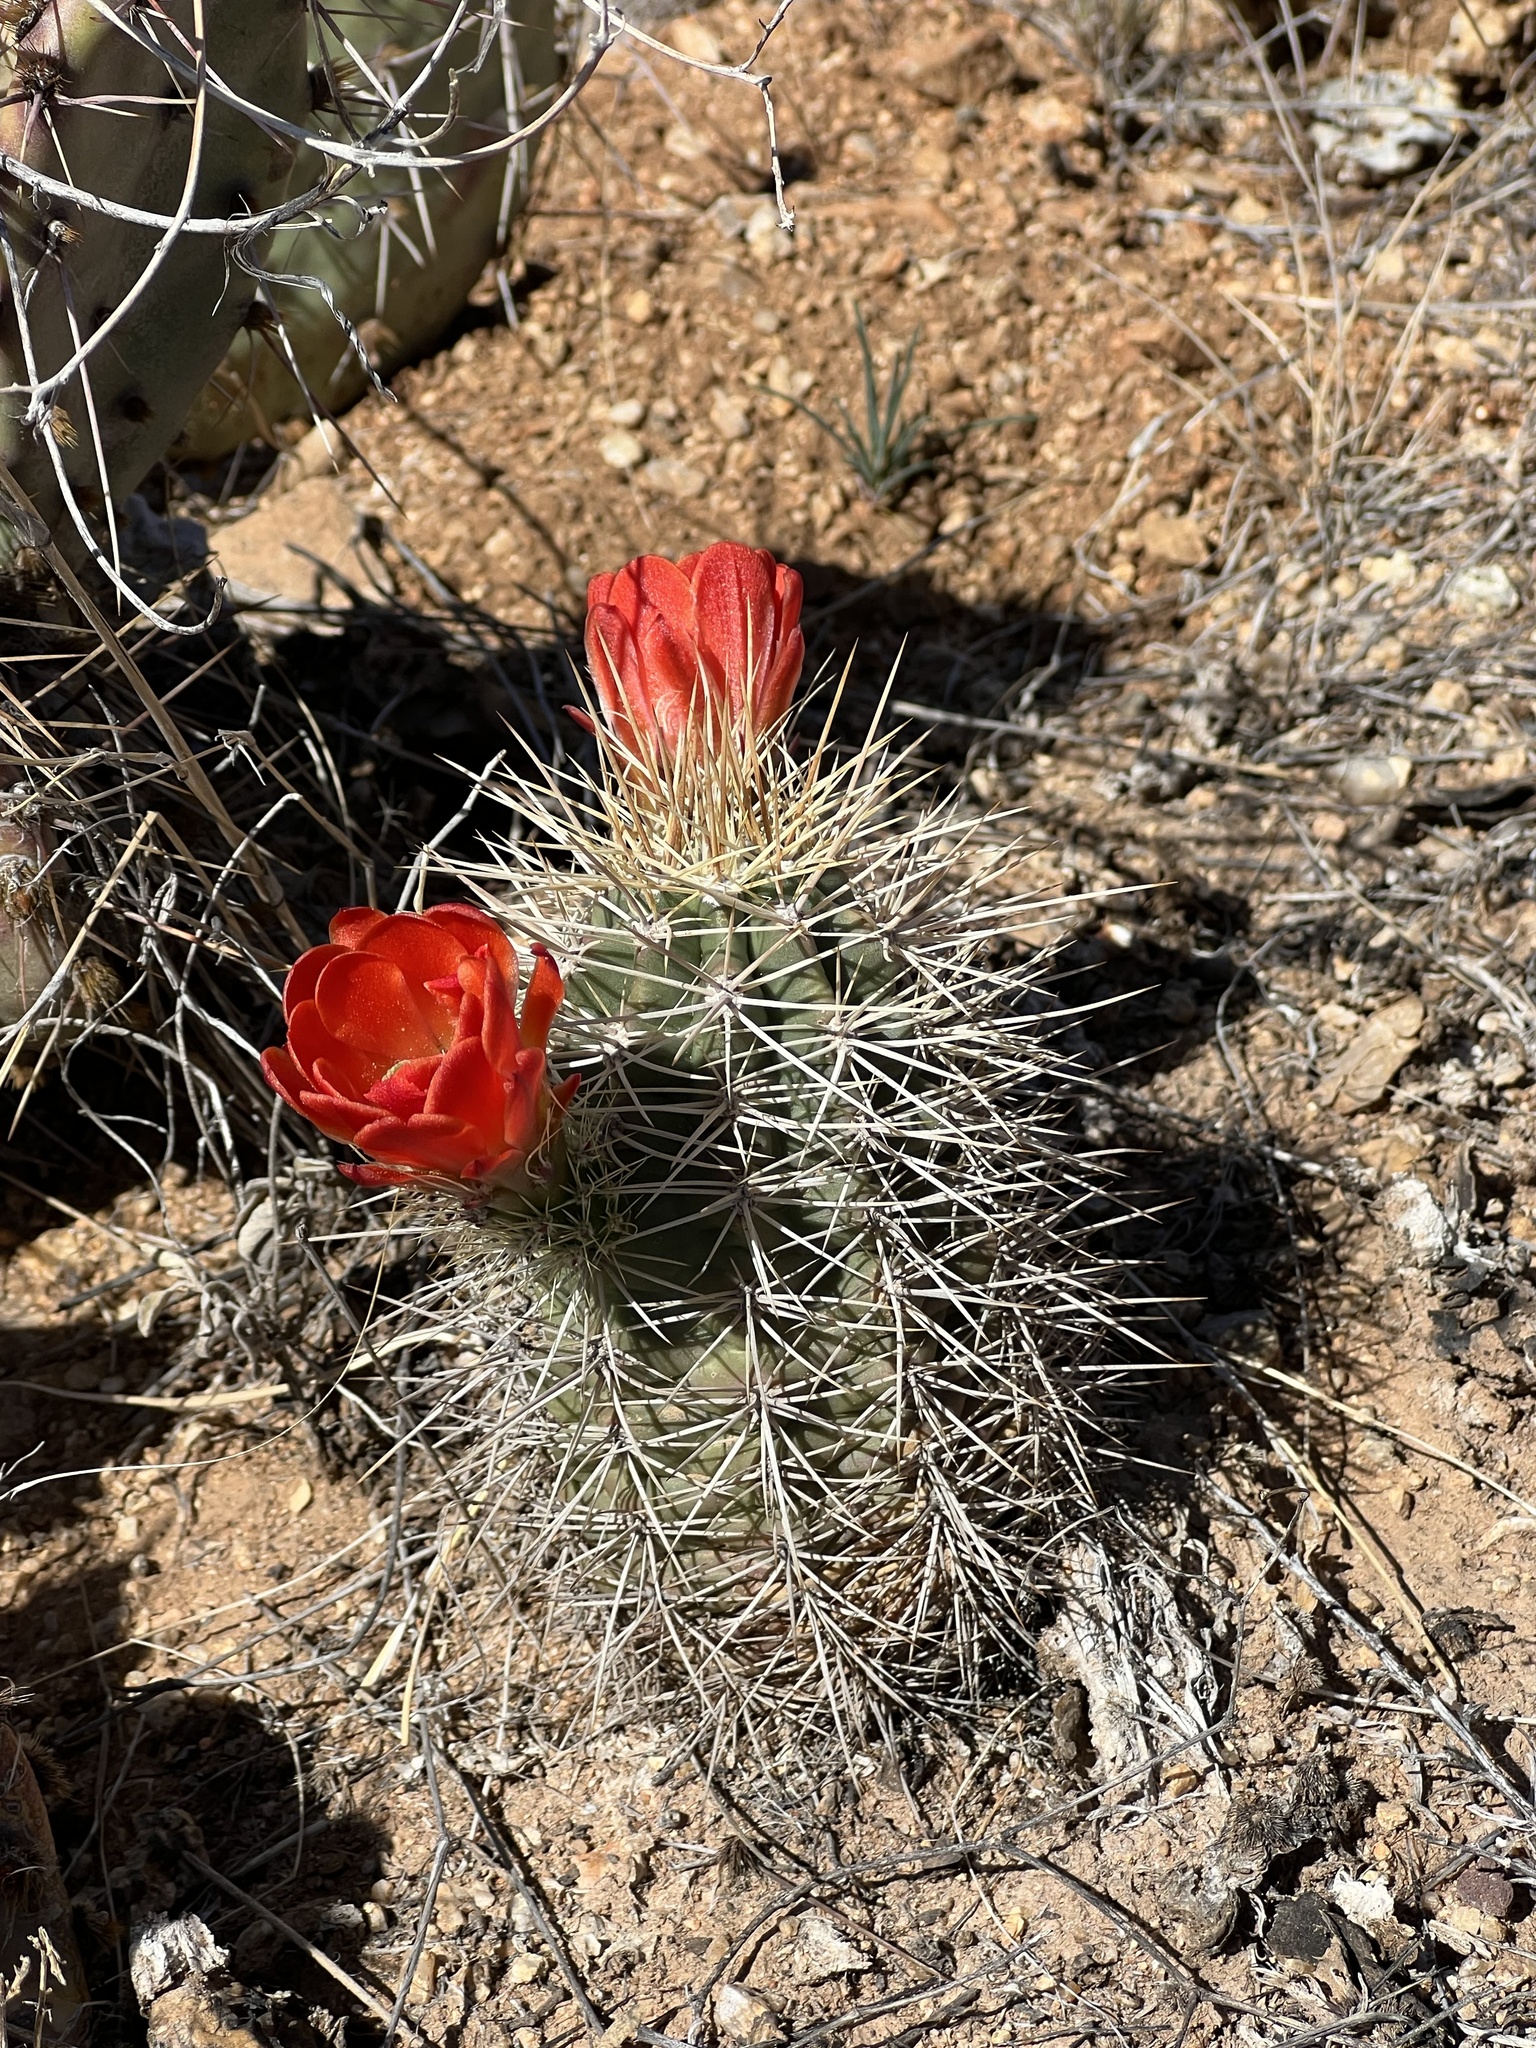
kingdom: Plantae
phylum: Tracheophyta
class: Magnoliopsida
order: Caryophyllales
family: Cactaceae
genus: Echinocereus
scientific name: Echinocereus coccineus
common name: Scarlet hedgehog cactus
